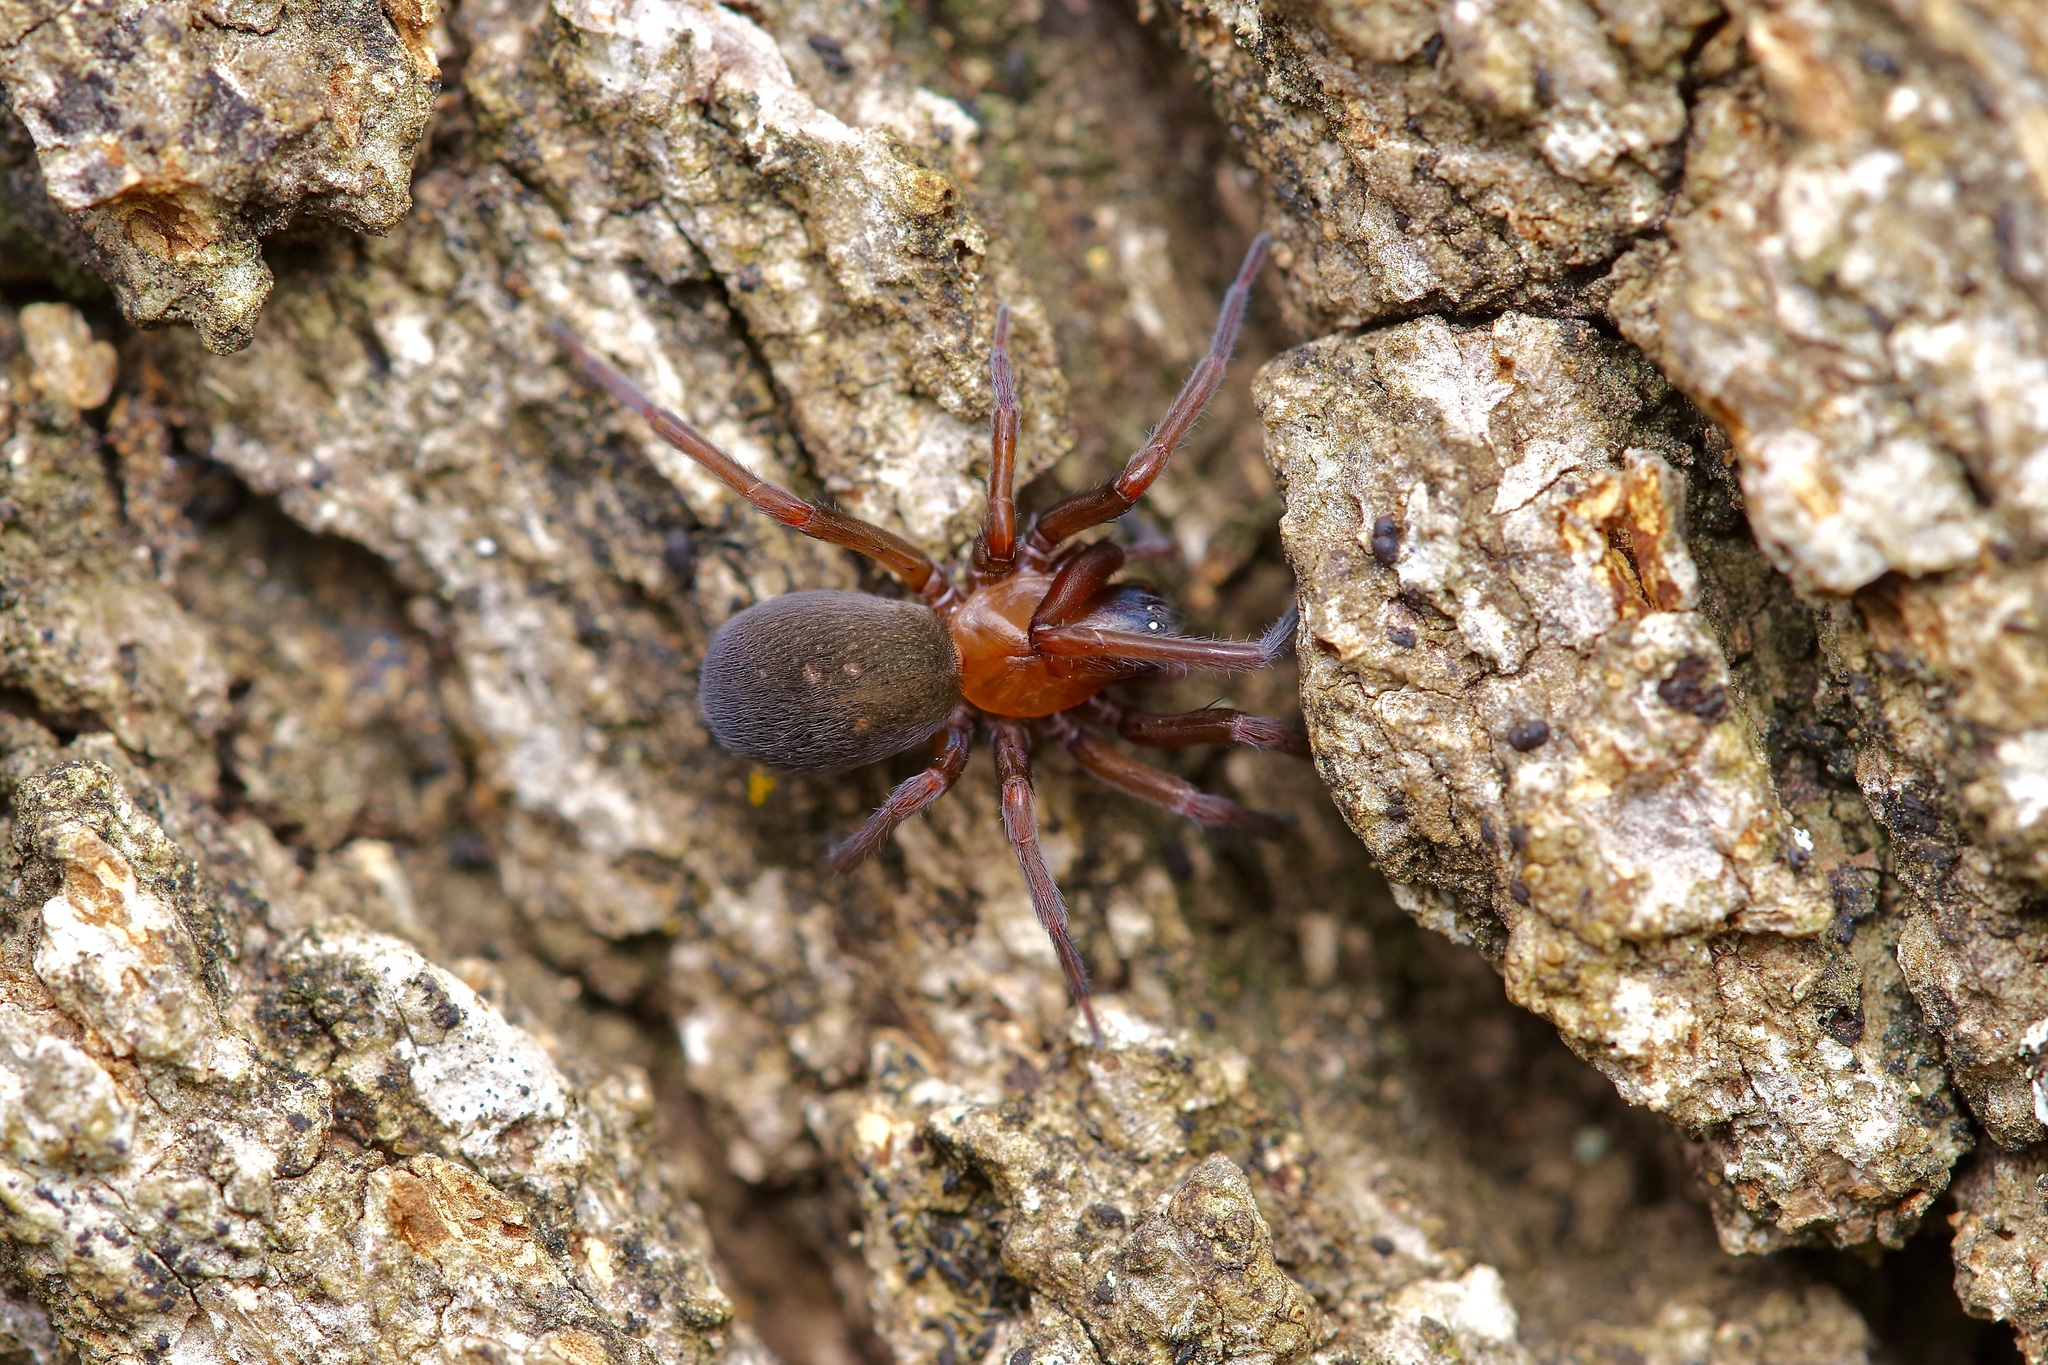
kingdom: Animalia
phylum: Arthropoda
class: Arachnida
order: Araneae
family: Desidae
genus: Metaltella
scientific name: Metaltella simoni
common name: Cribellate spider
